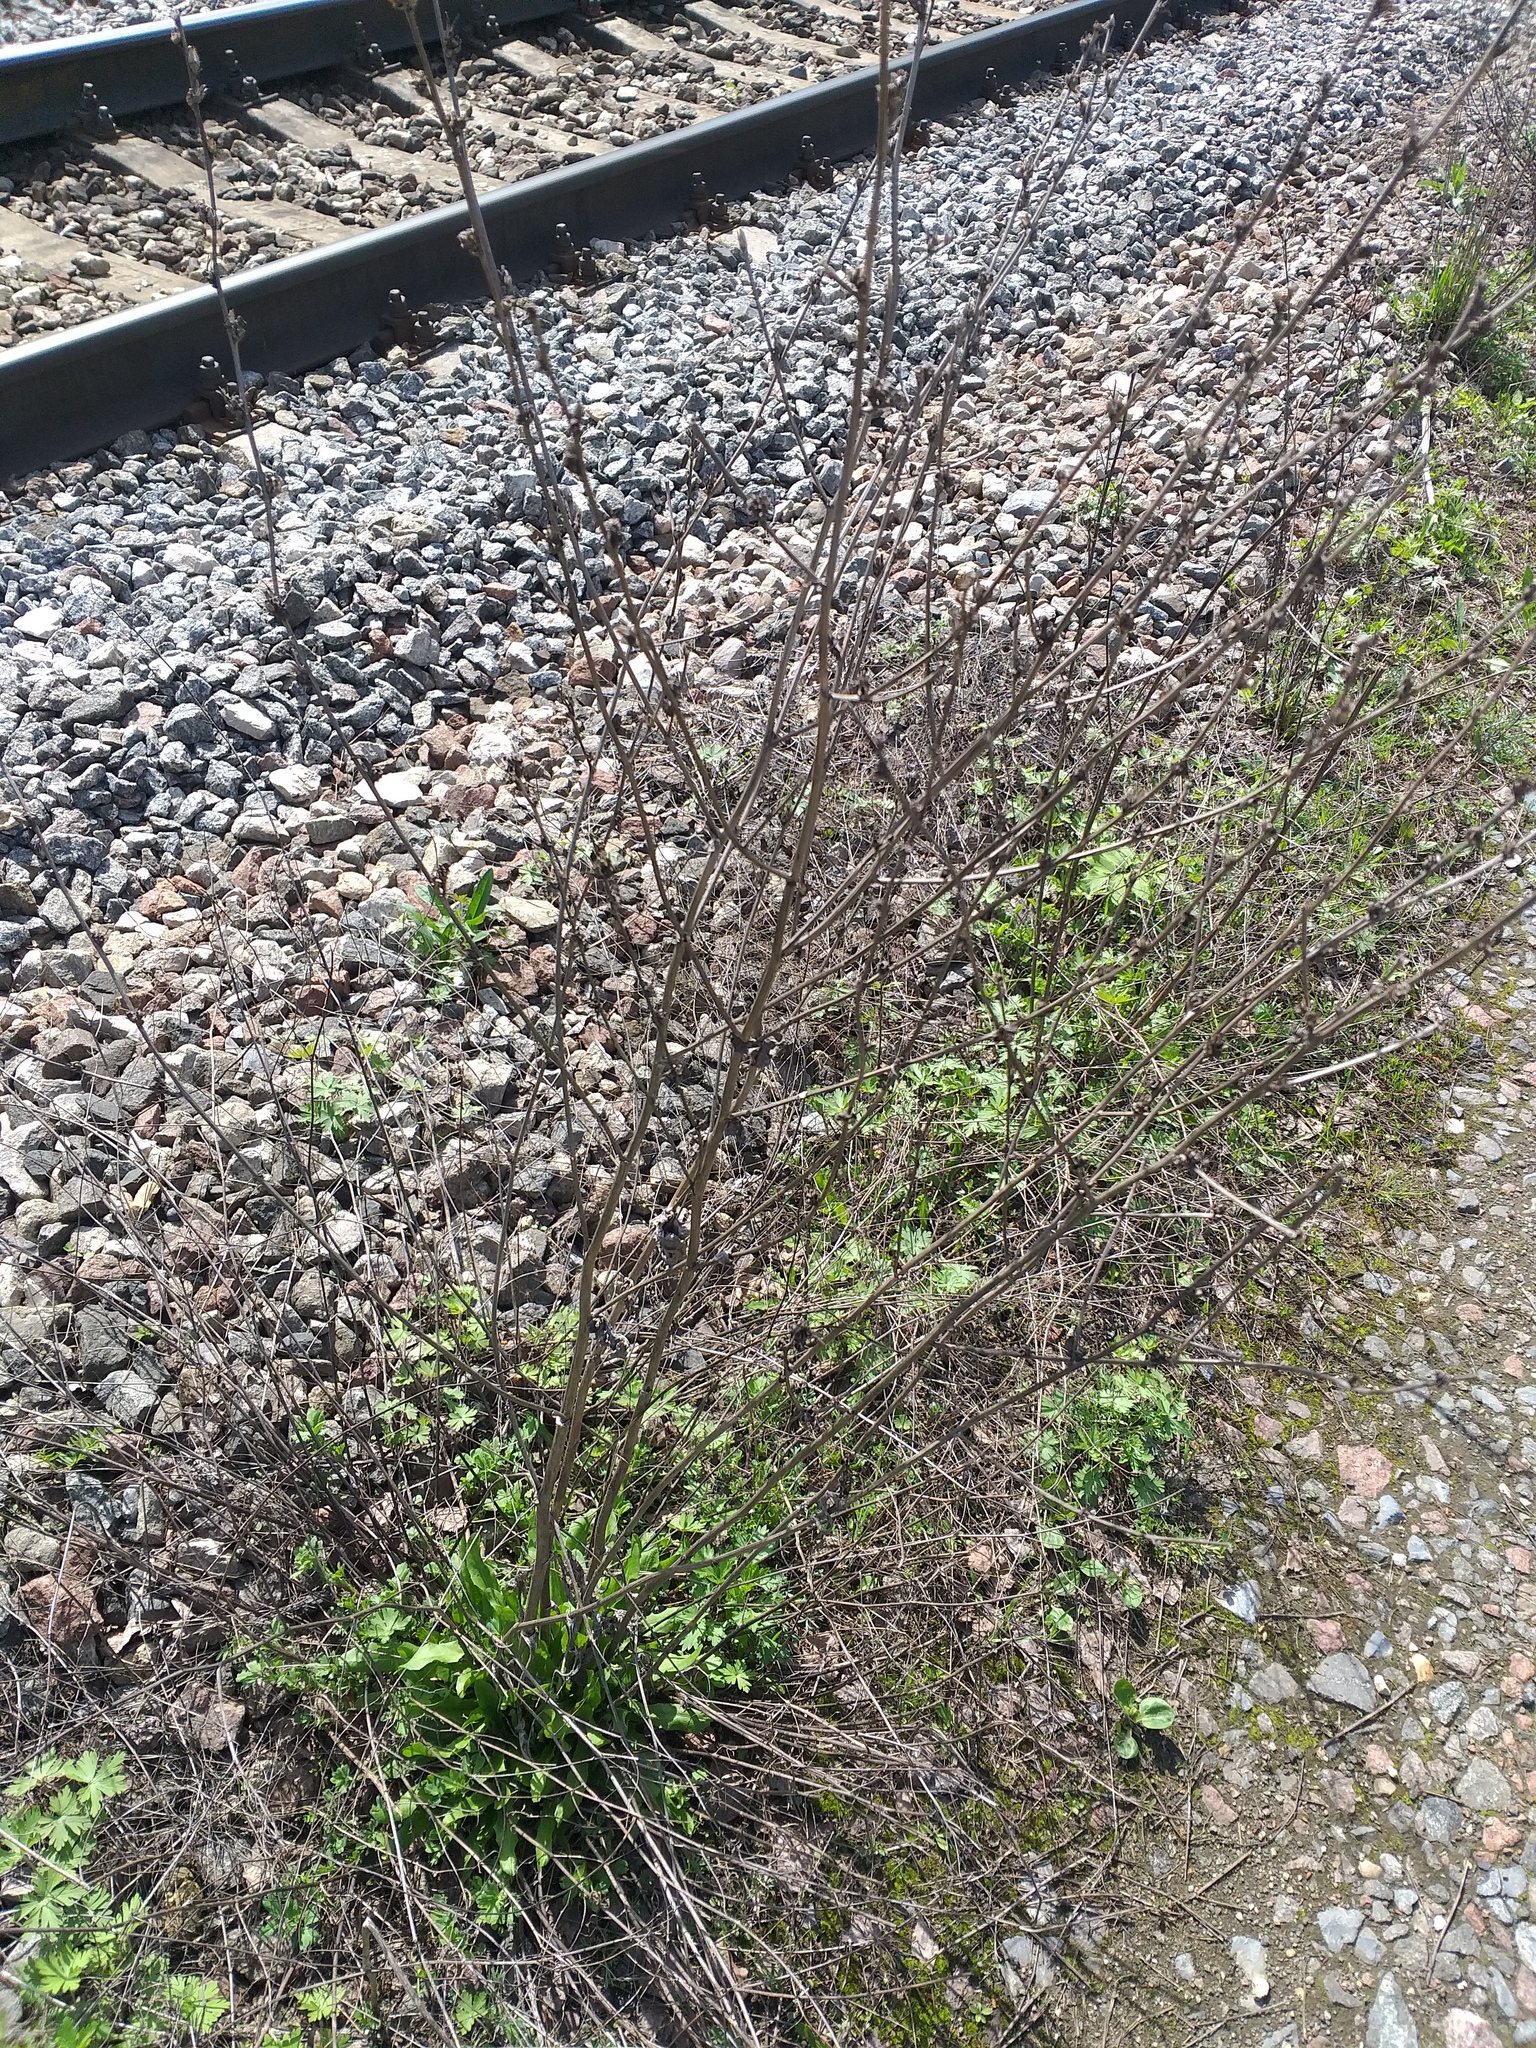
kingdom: Plantae
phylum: Tracheophyta
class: Magnoliopsida
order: Asterales
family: Asteraceae
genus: Cichorium
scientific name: Cichorium intybus
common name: Chicory
